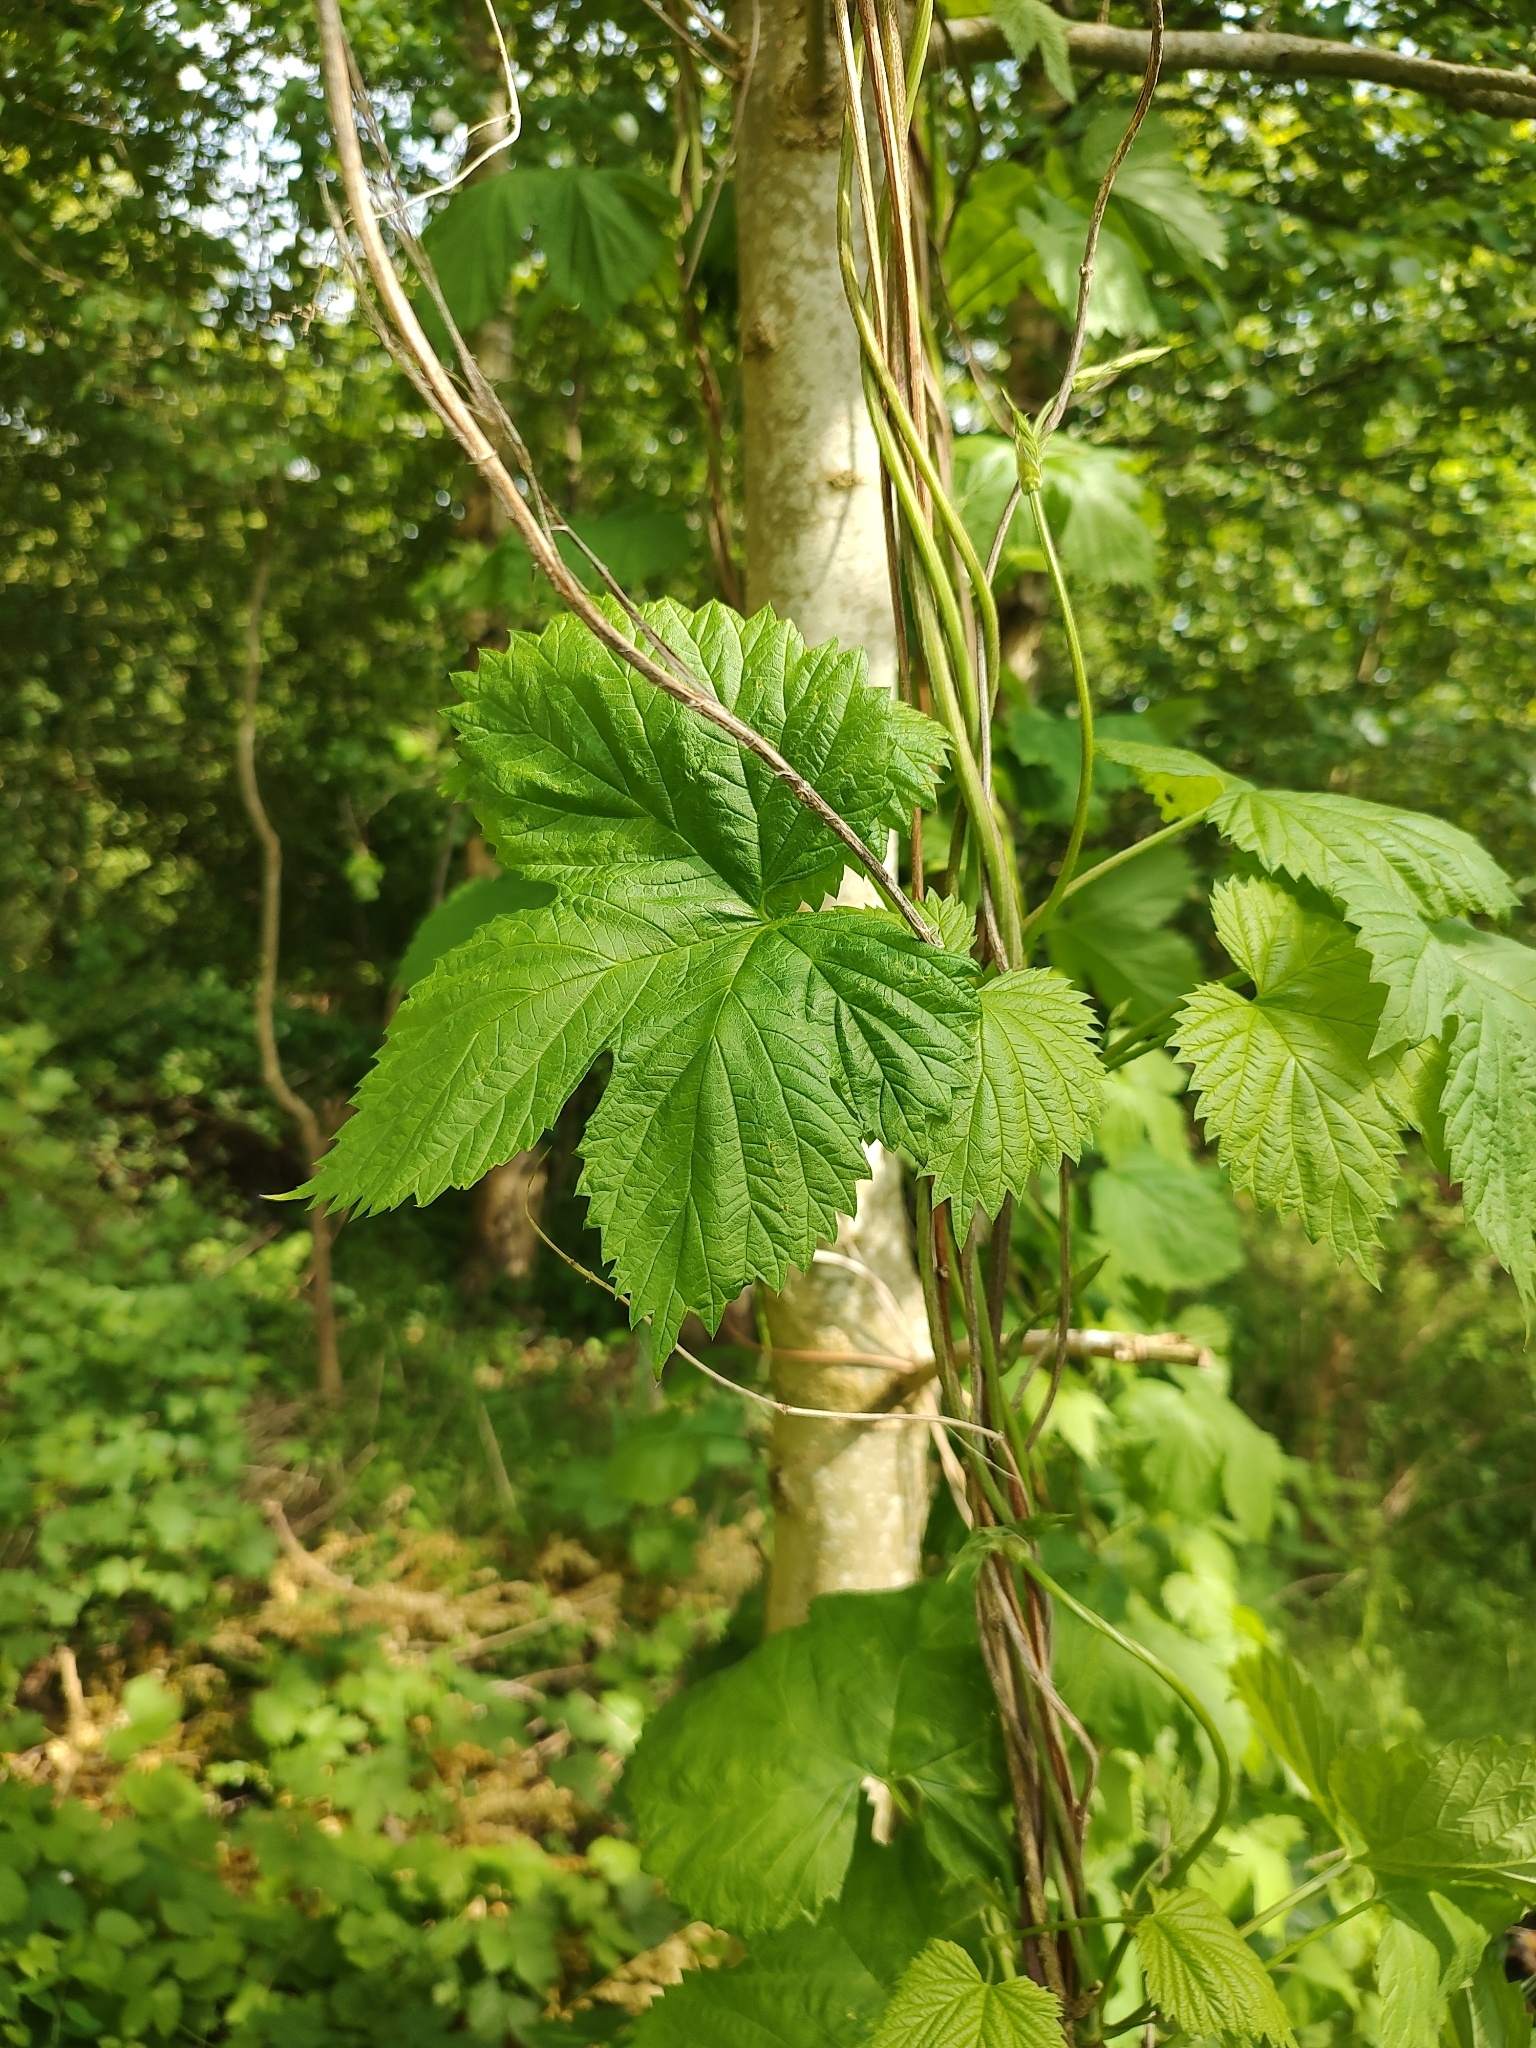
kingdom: Plantae
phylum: Tracheophyta
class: Magnoliopsida
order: Rosales
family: Cannabaceae
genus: Humulus
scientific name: Humulus lupulus
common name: Hop
